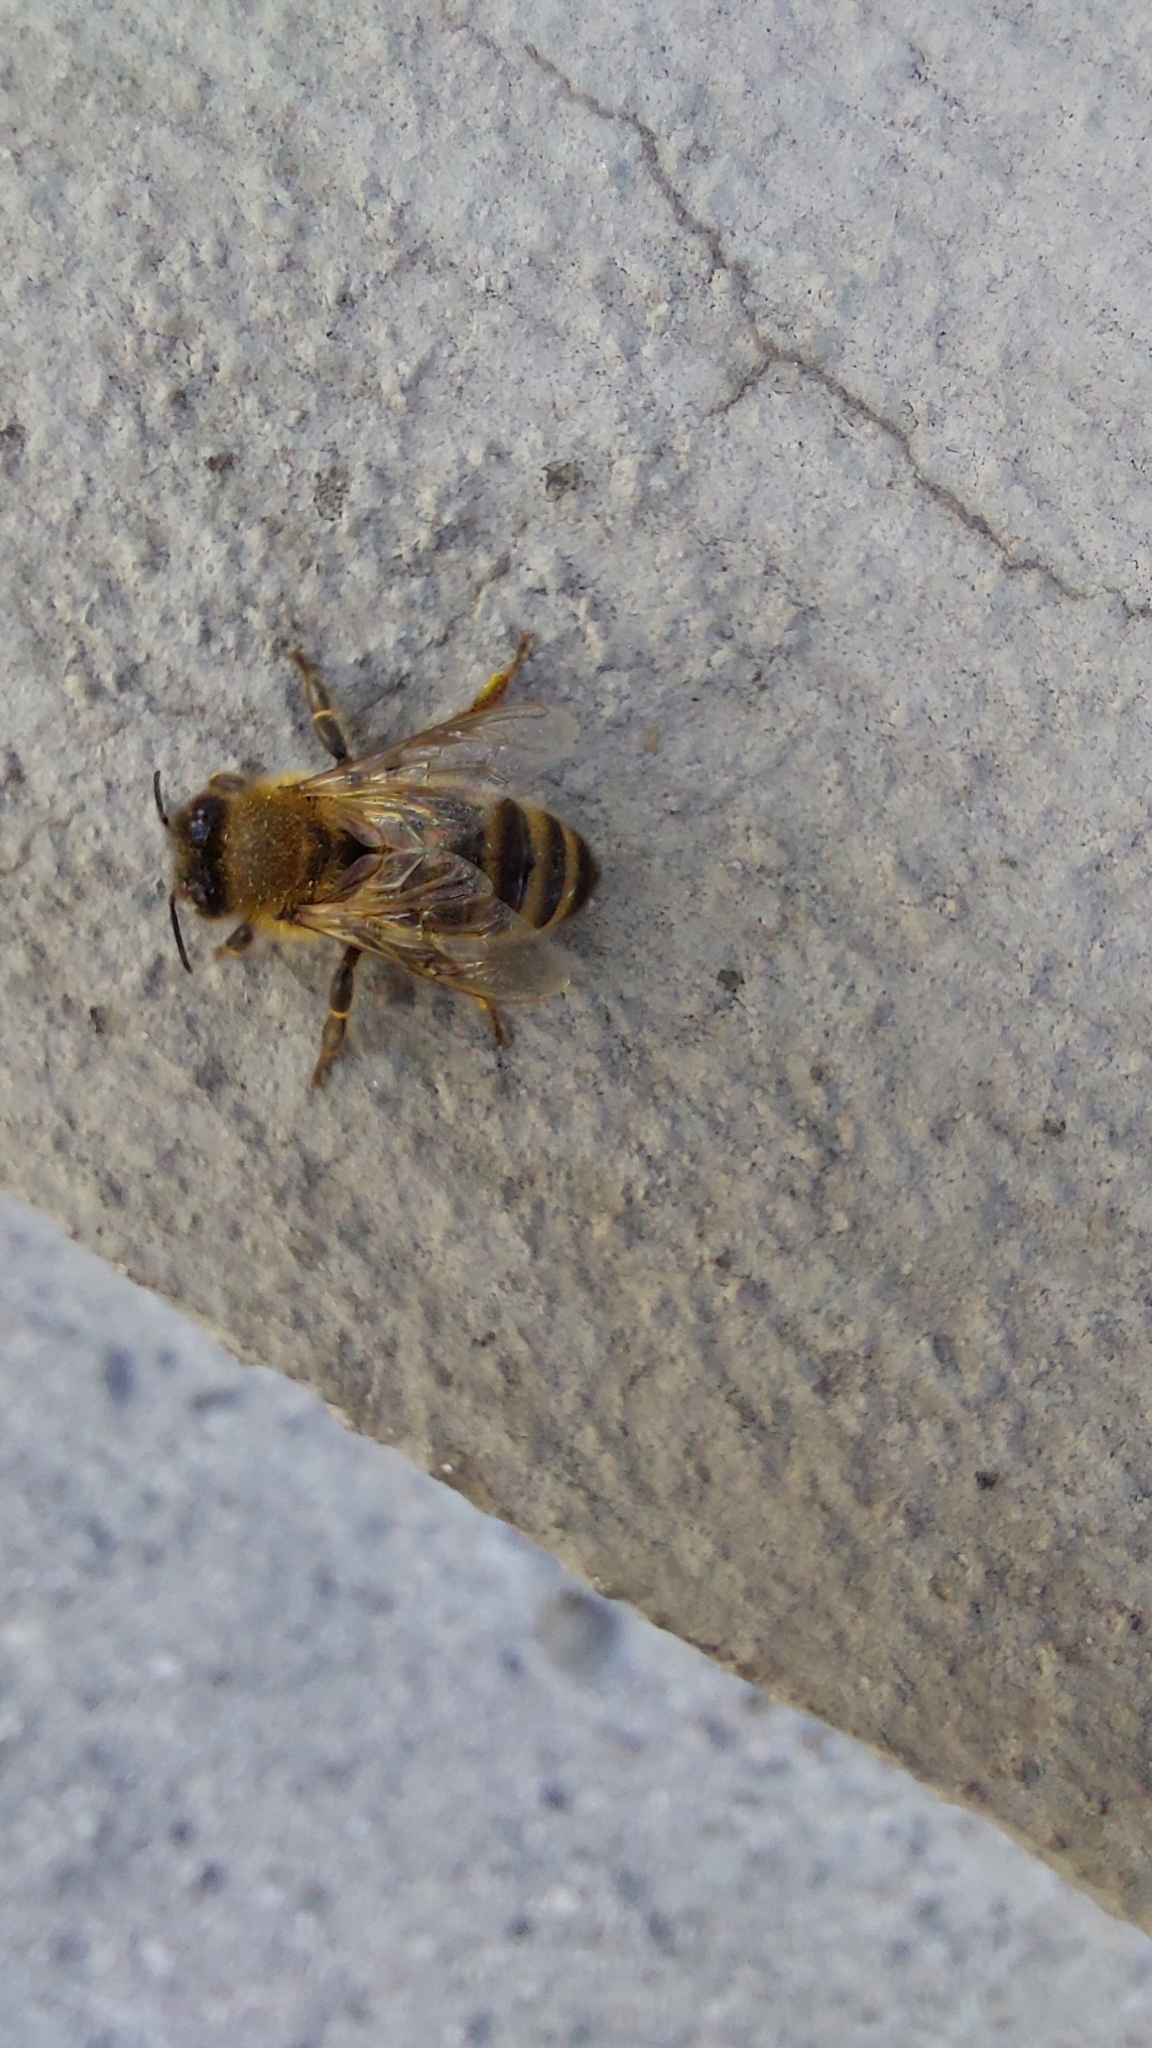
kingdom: Animalia
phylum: Arthropoda
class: Insecta
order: Hymenoptera
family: Apidae
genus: Apis
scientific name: Apis mellifera
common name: Honey bee
